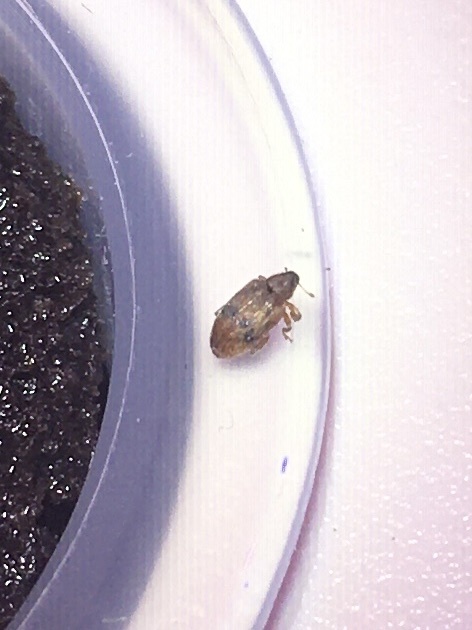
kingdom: Animalia
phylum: Arthropoda
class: Insecta
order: Coleoptera
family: Curculionidae
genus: Orchestes
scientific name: Orchestes steppensis
